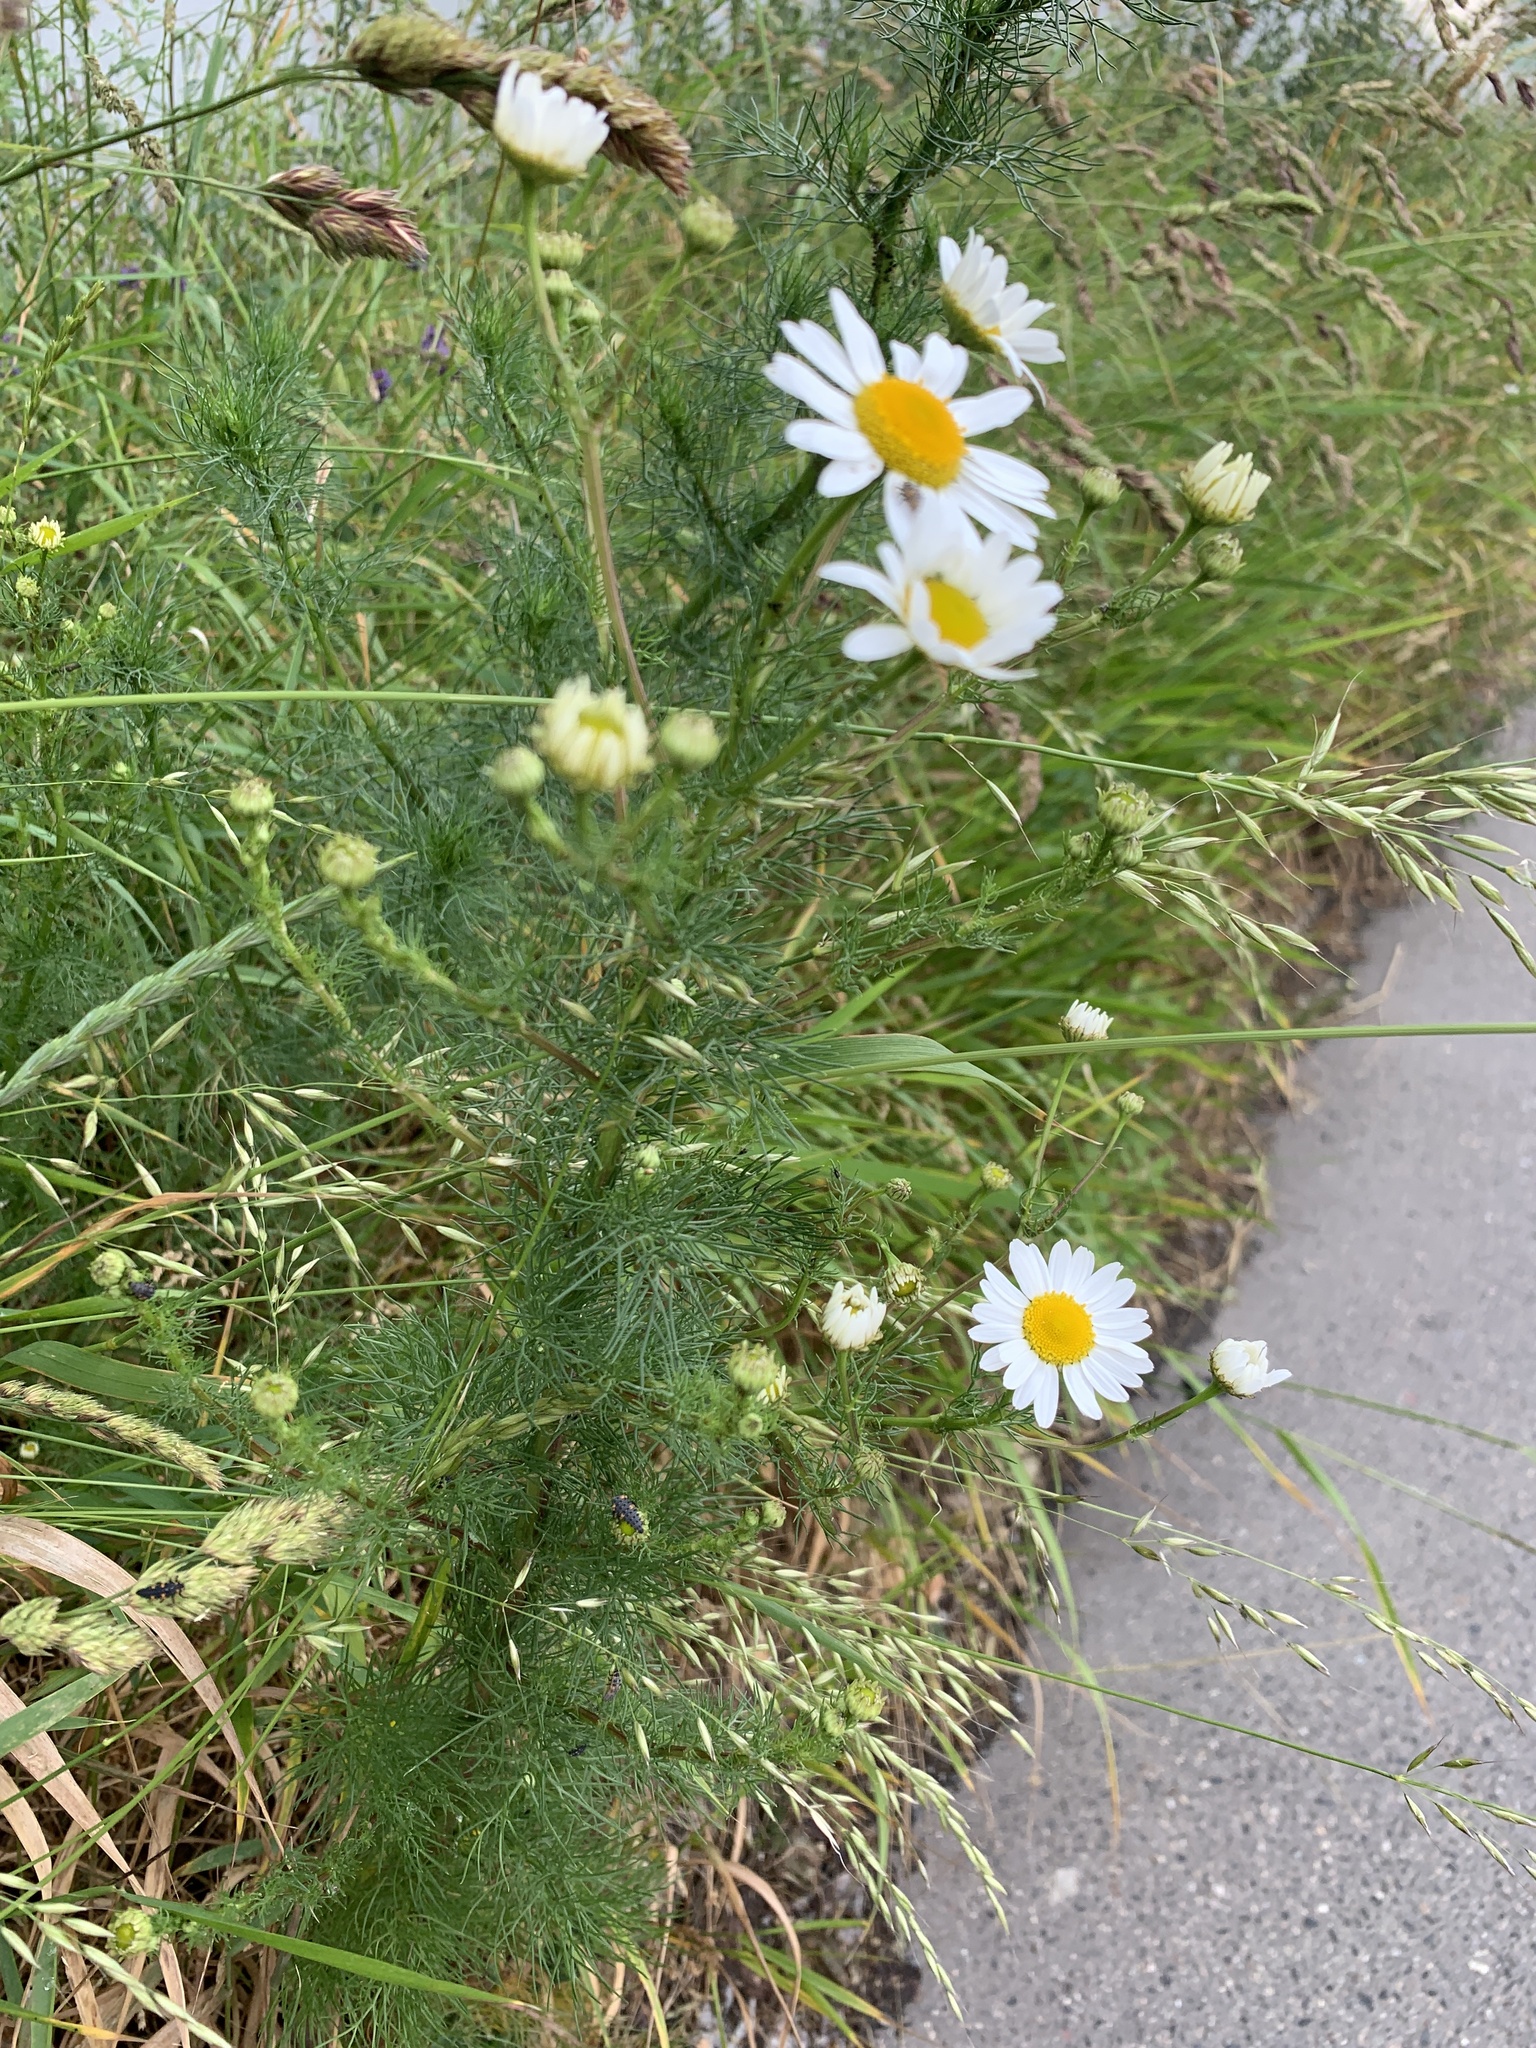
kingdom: Plantae
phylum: Tracheophyta
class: Magnoliopsida
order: Asterales
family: Asteraceae
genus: Tripleurospermum
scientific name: Tripleurospermum inodorum
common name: Scentless mayweed
